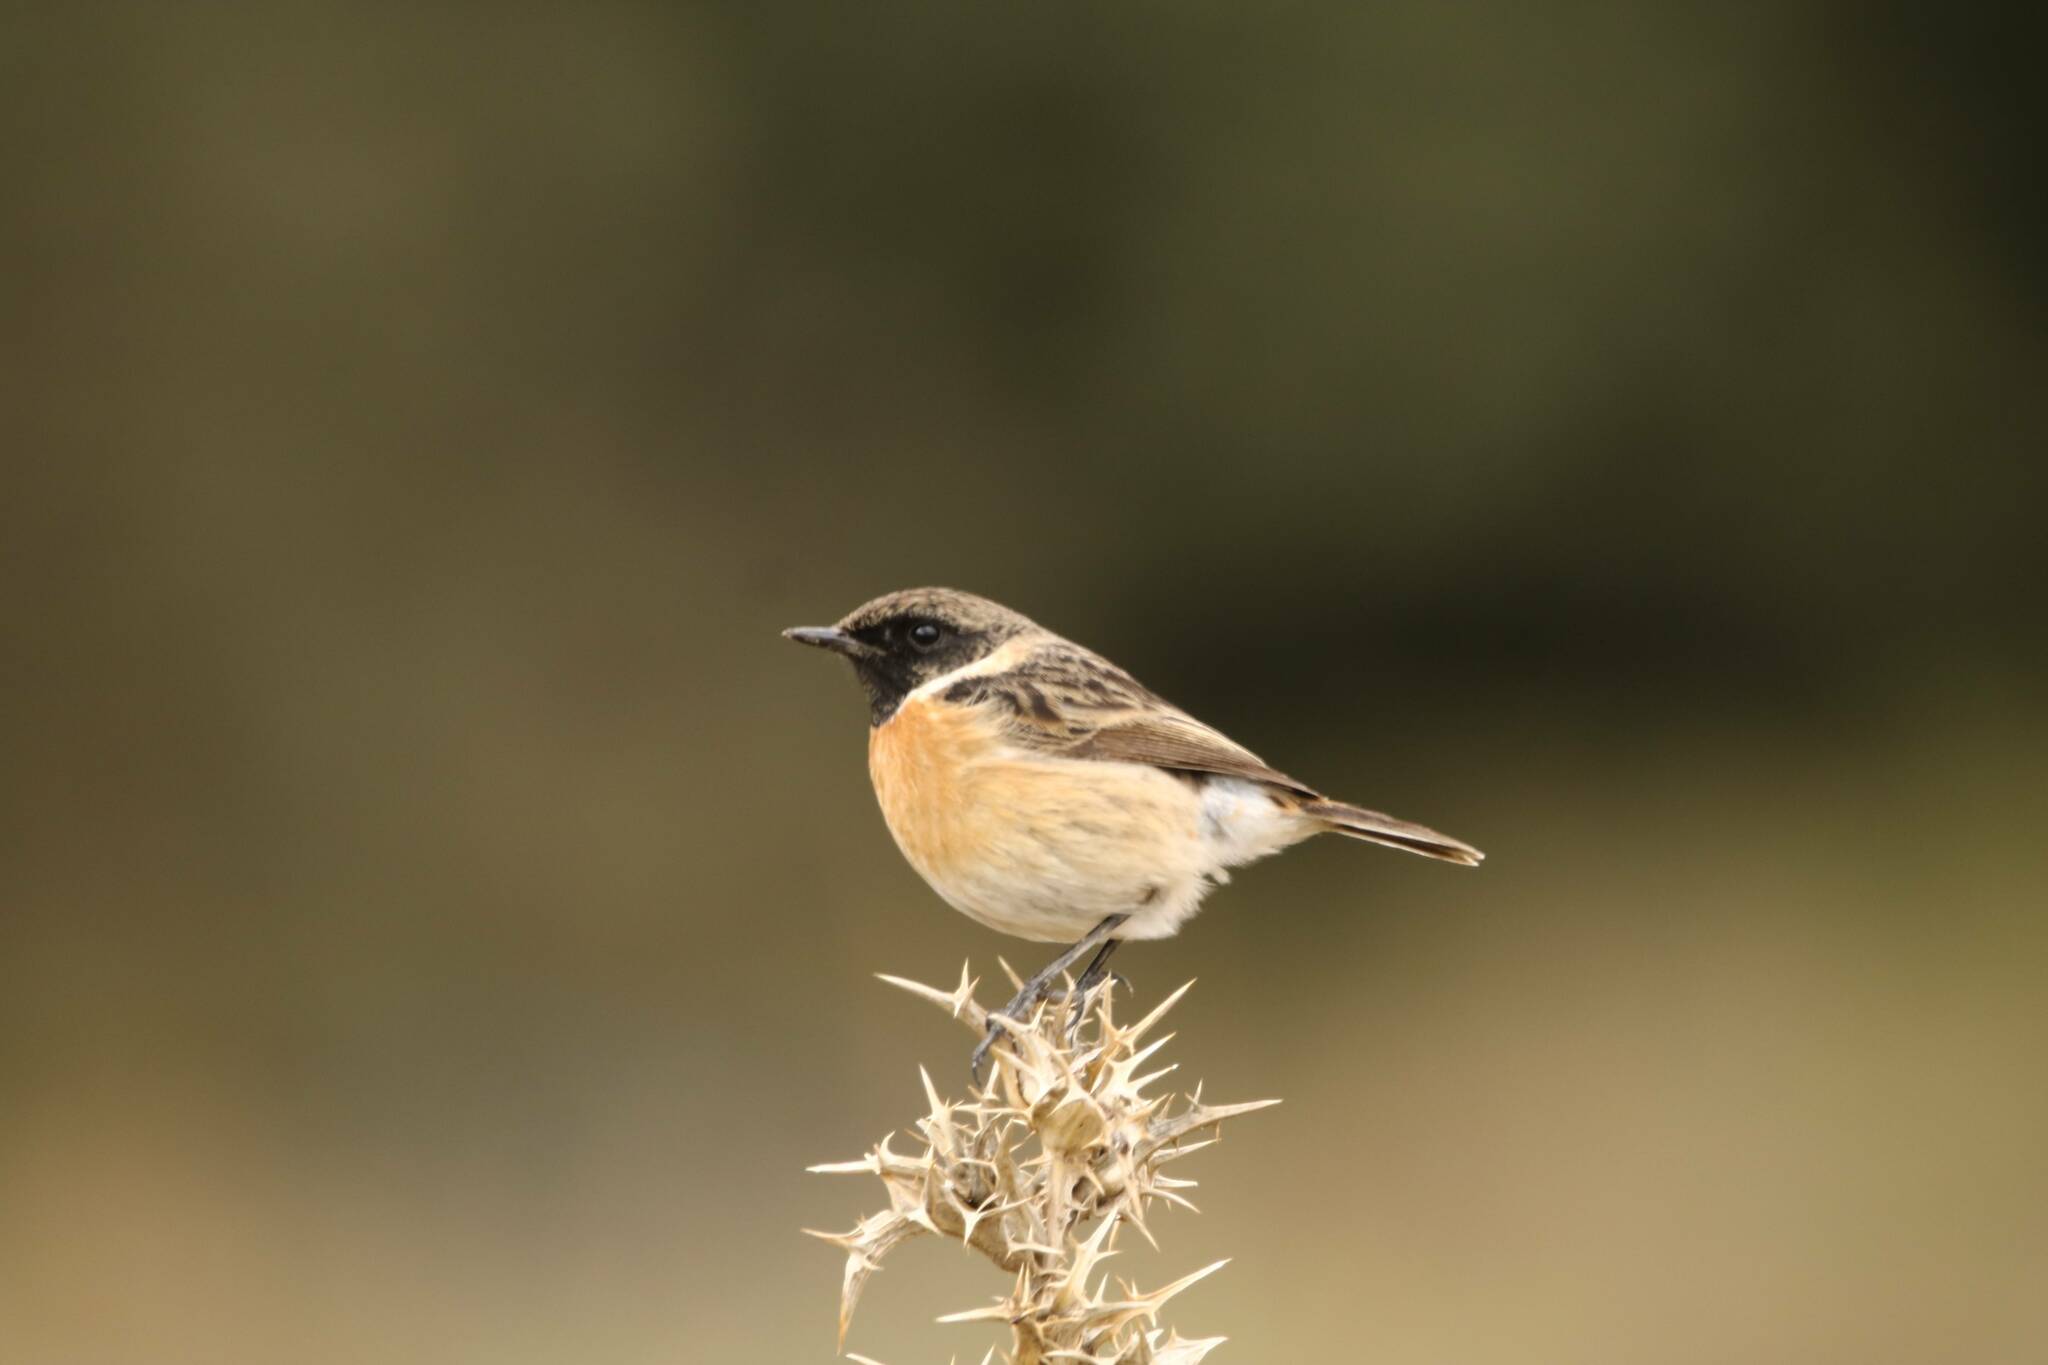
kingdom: Animalia
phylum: Chordata
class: Aves
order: Passeriformes
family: Muscicapidae
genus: Saxicola
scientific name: Saxicola rubicola
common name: European stonechat
